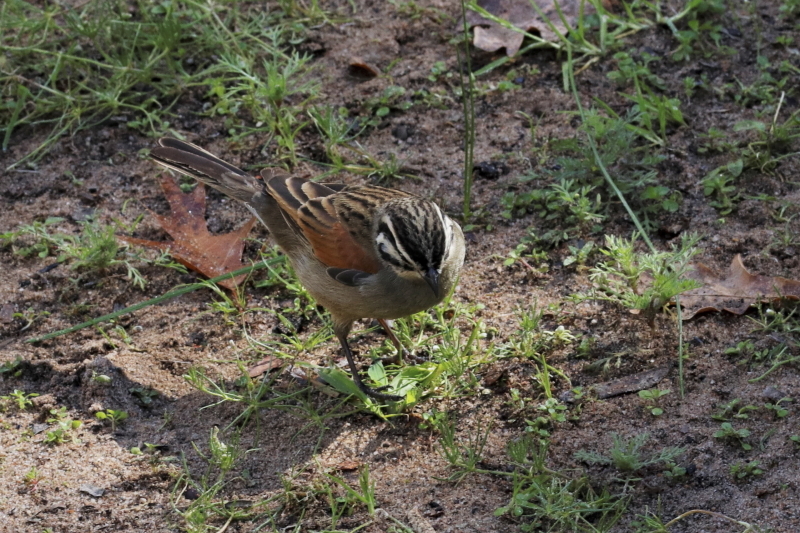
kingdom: Animalia
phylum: Chordata
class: Aves
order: Passeriformes
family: Emberizidae
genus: Emberiza
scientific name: Emberiza capensis
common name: Cape bunting
